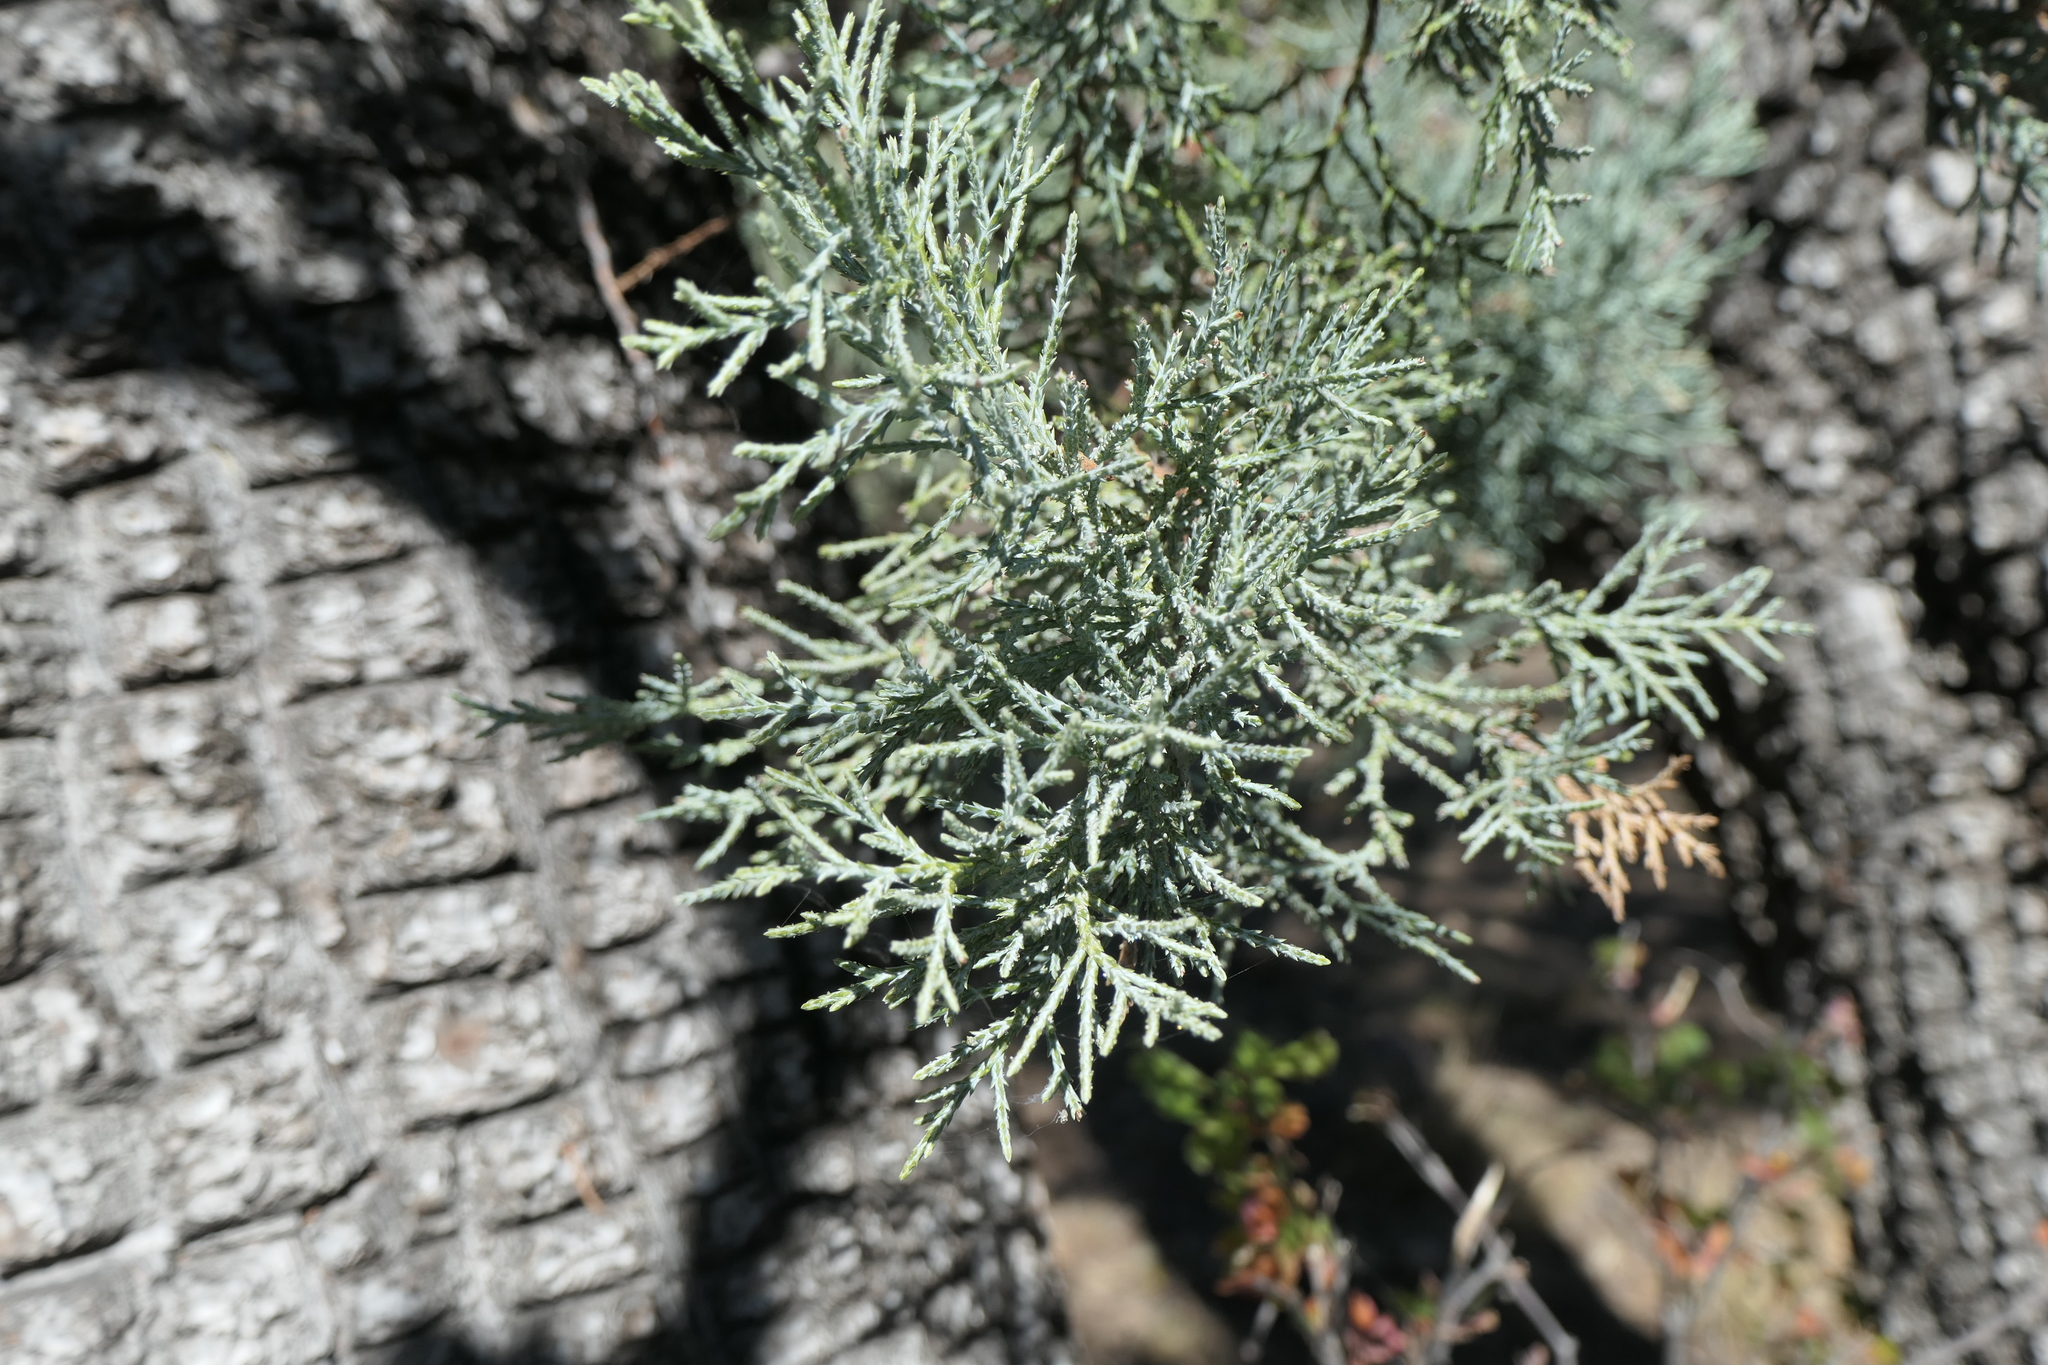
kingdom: Plantae
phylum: Tracheophyta
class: Pinopsida
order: Pinales
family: Cupressaceae
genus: Juniperus
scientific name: Juniperus deppeana
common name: Alligator juniper
